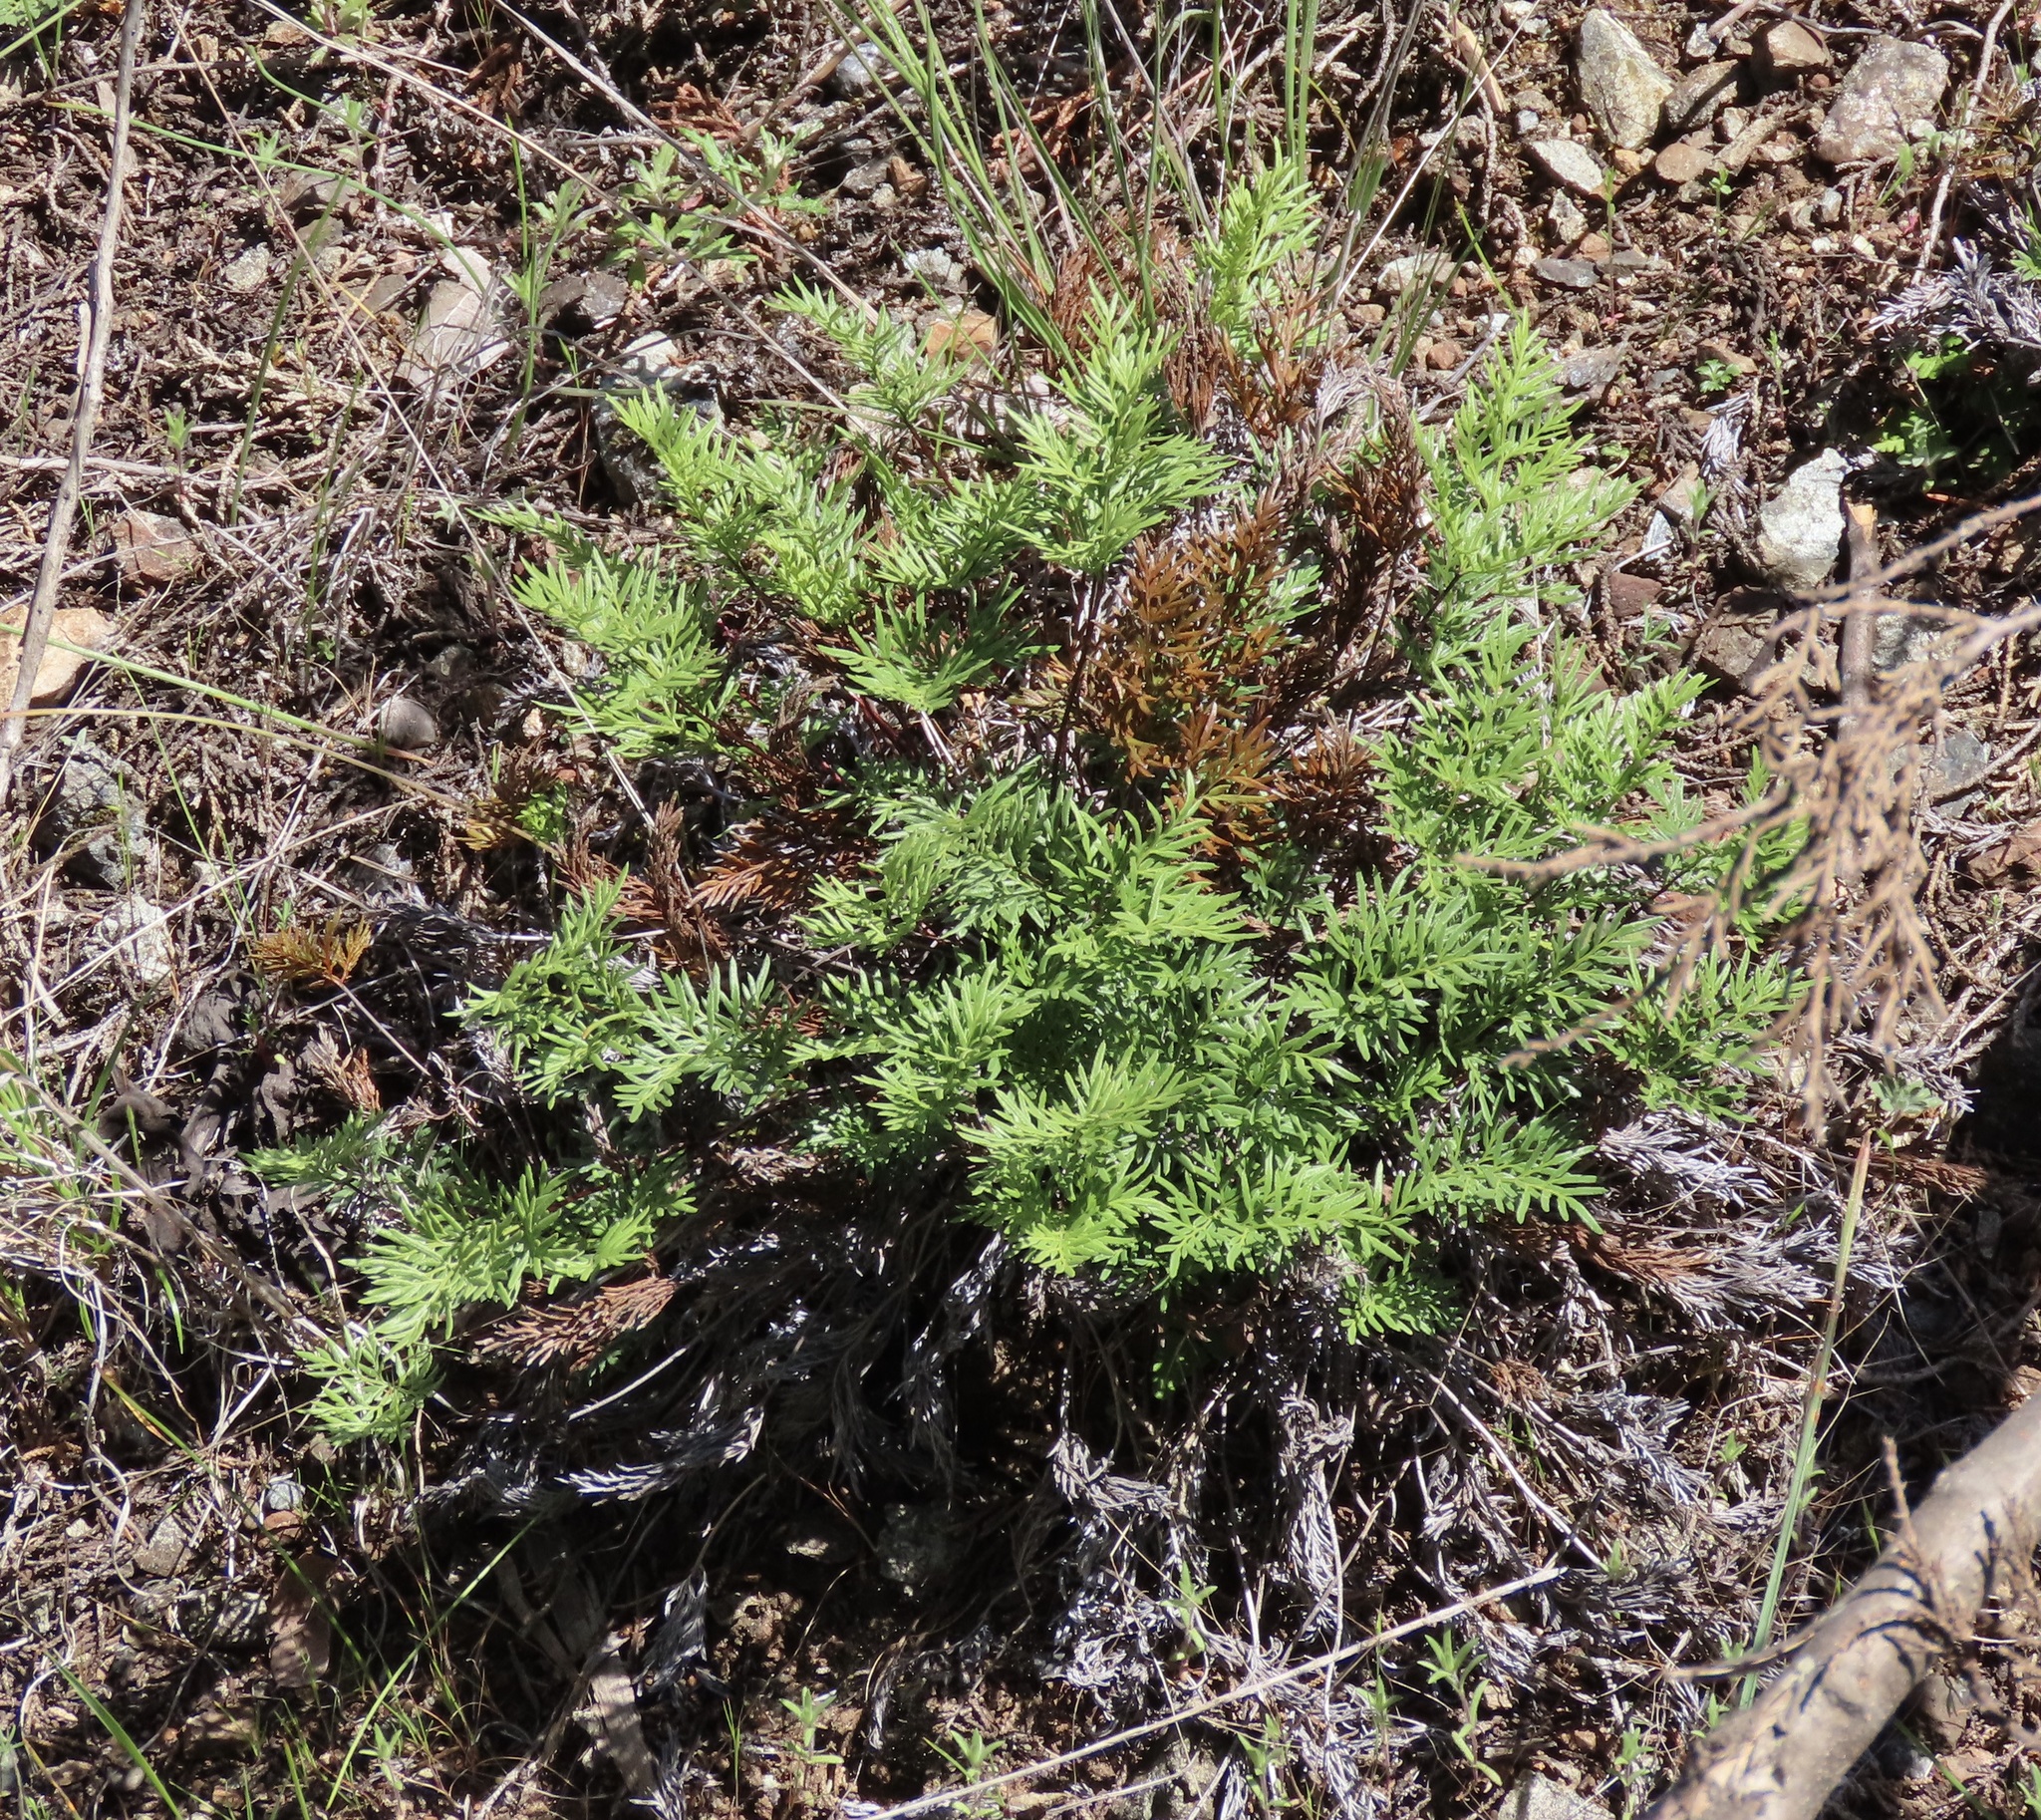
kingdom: Plantae
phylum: Tracheophyta
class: Polypodiopsida
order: Polypodiales
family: Pteridaceae
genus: Aspidotis
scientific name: Aspidotis densa
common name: Indian's dream
